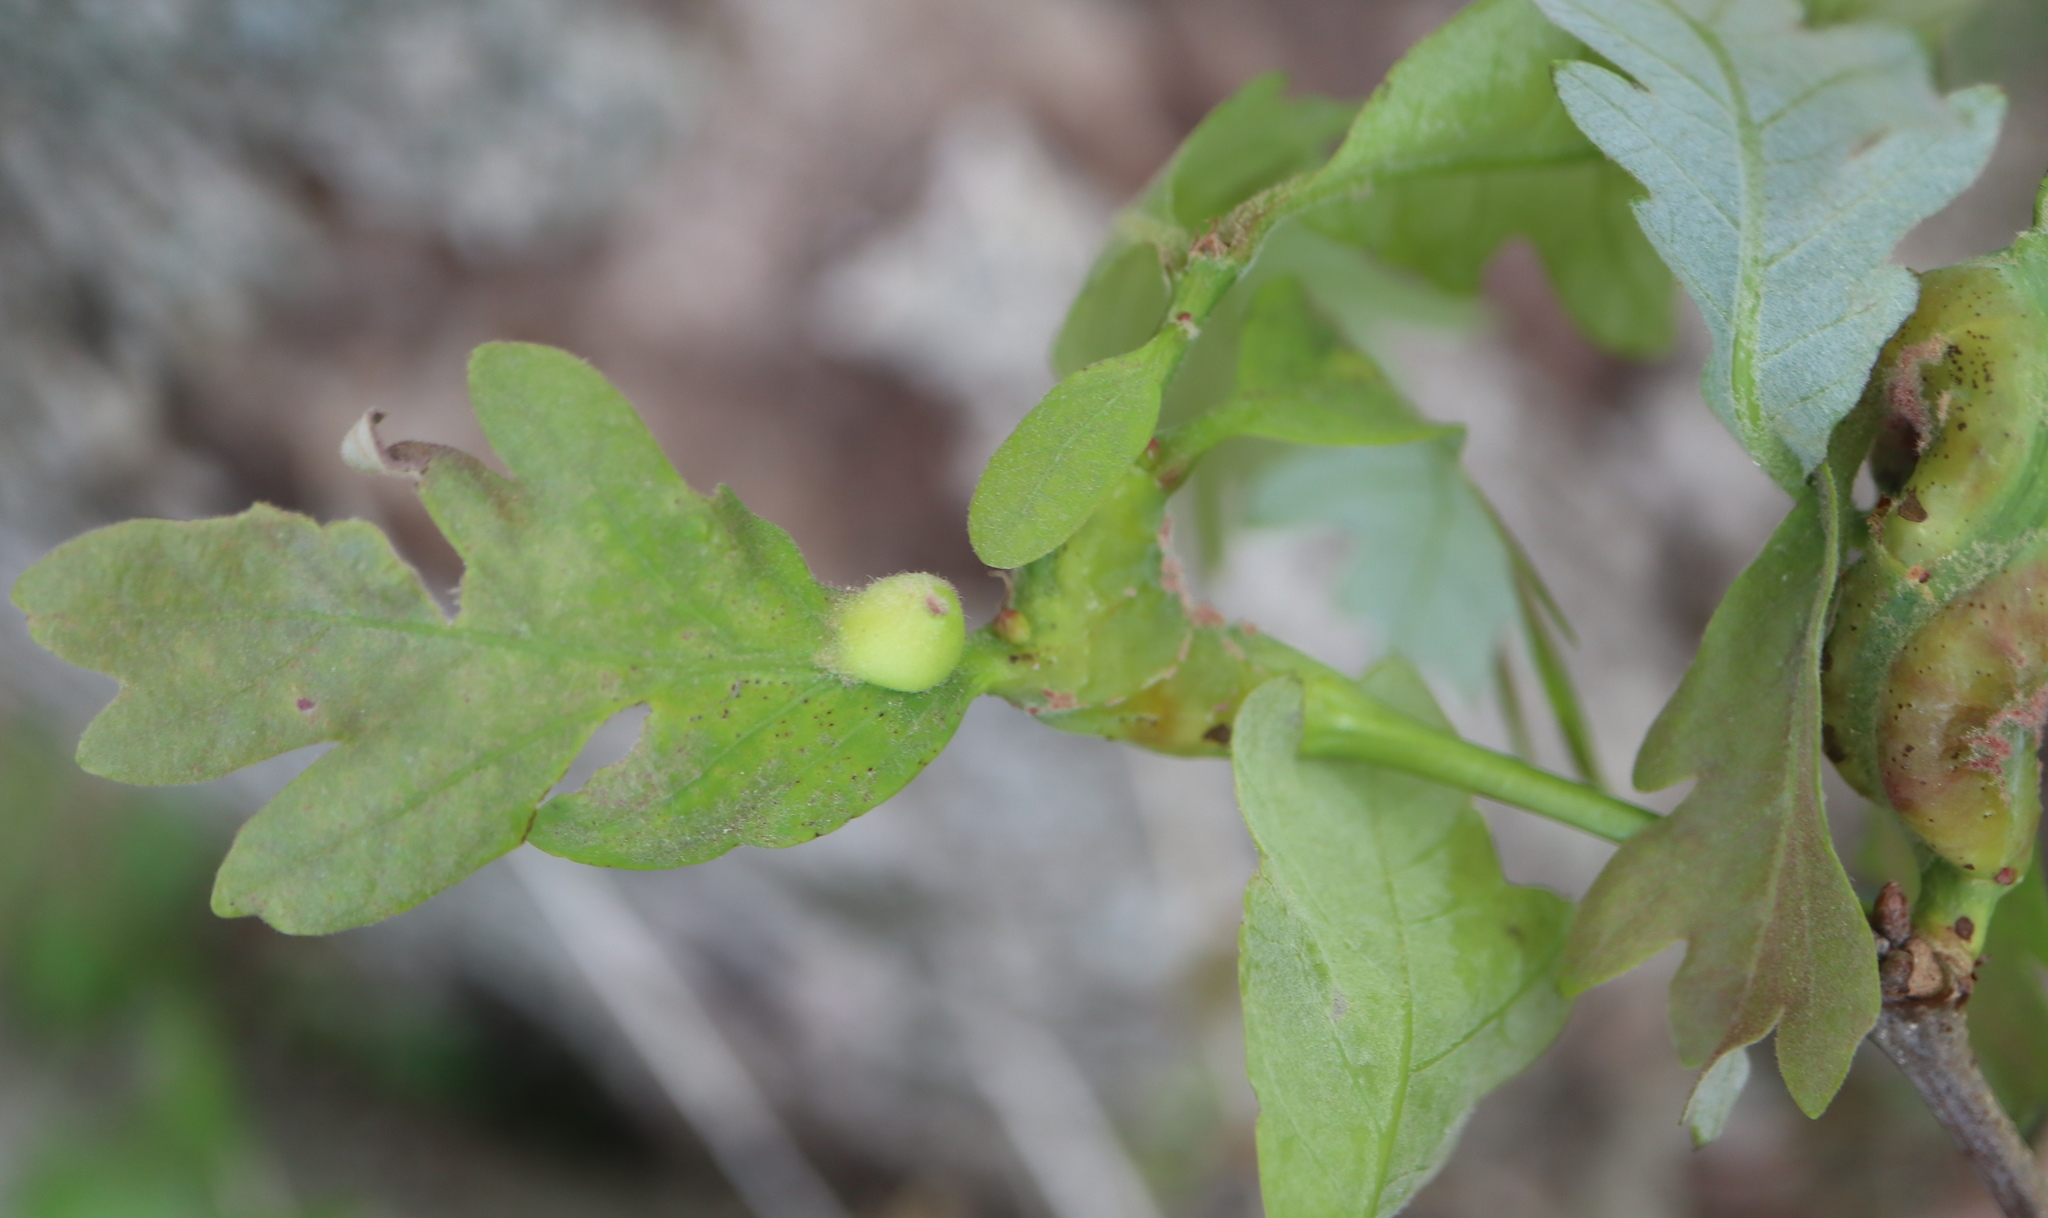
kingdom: Animalia
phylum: Arthropoda
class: Insecta
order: Hymenoptera
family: Cynipidae
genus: Andricus
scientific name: Andricus
